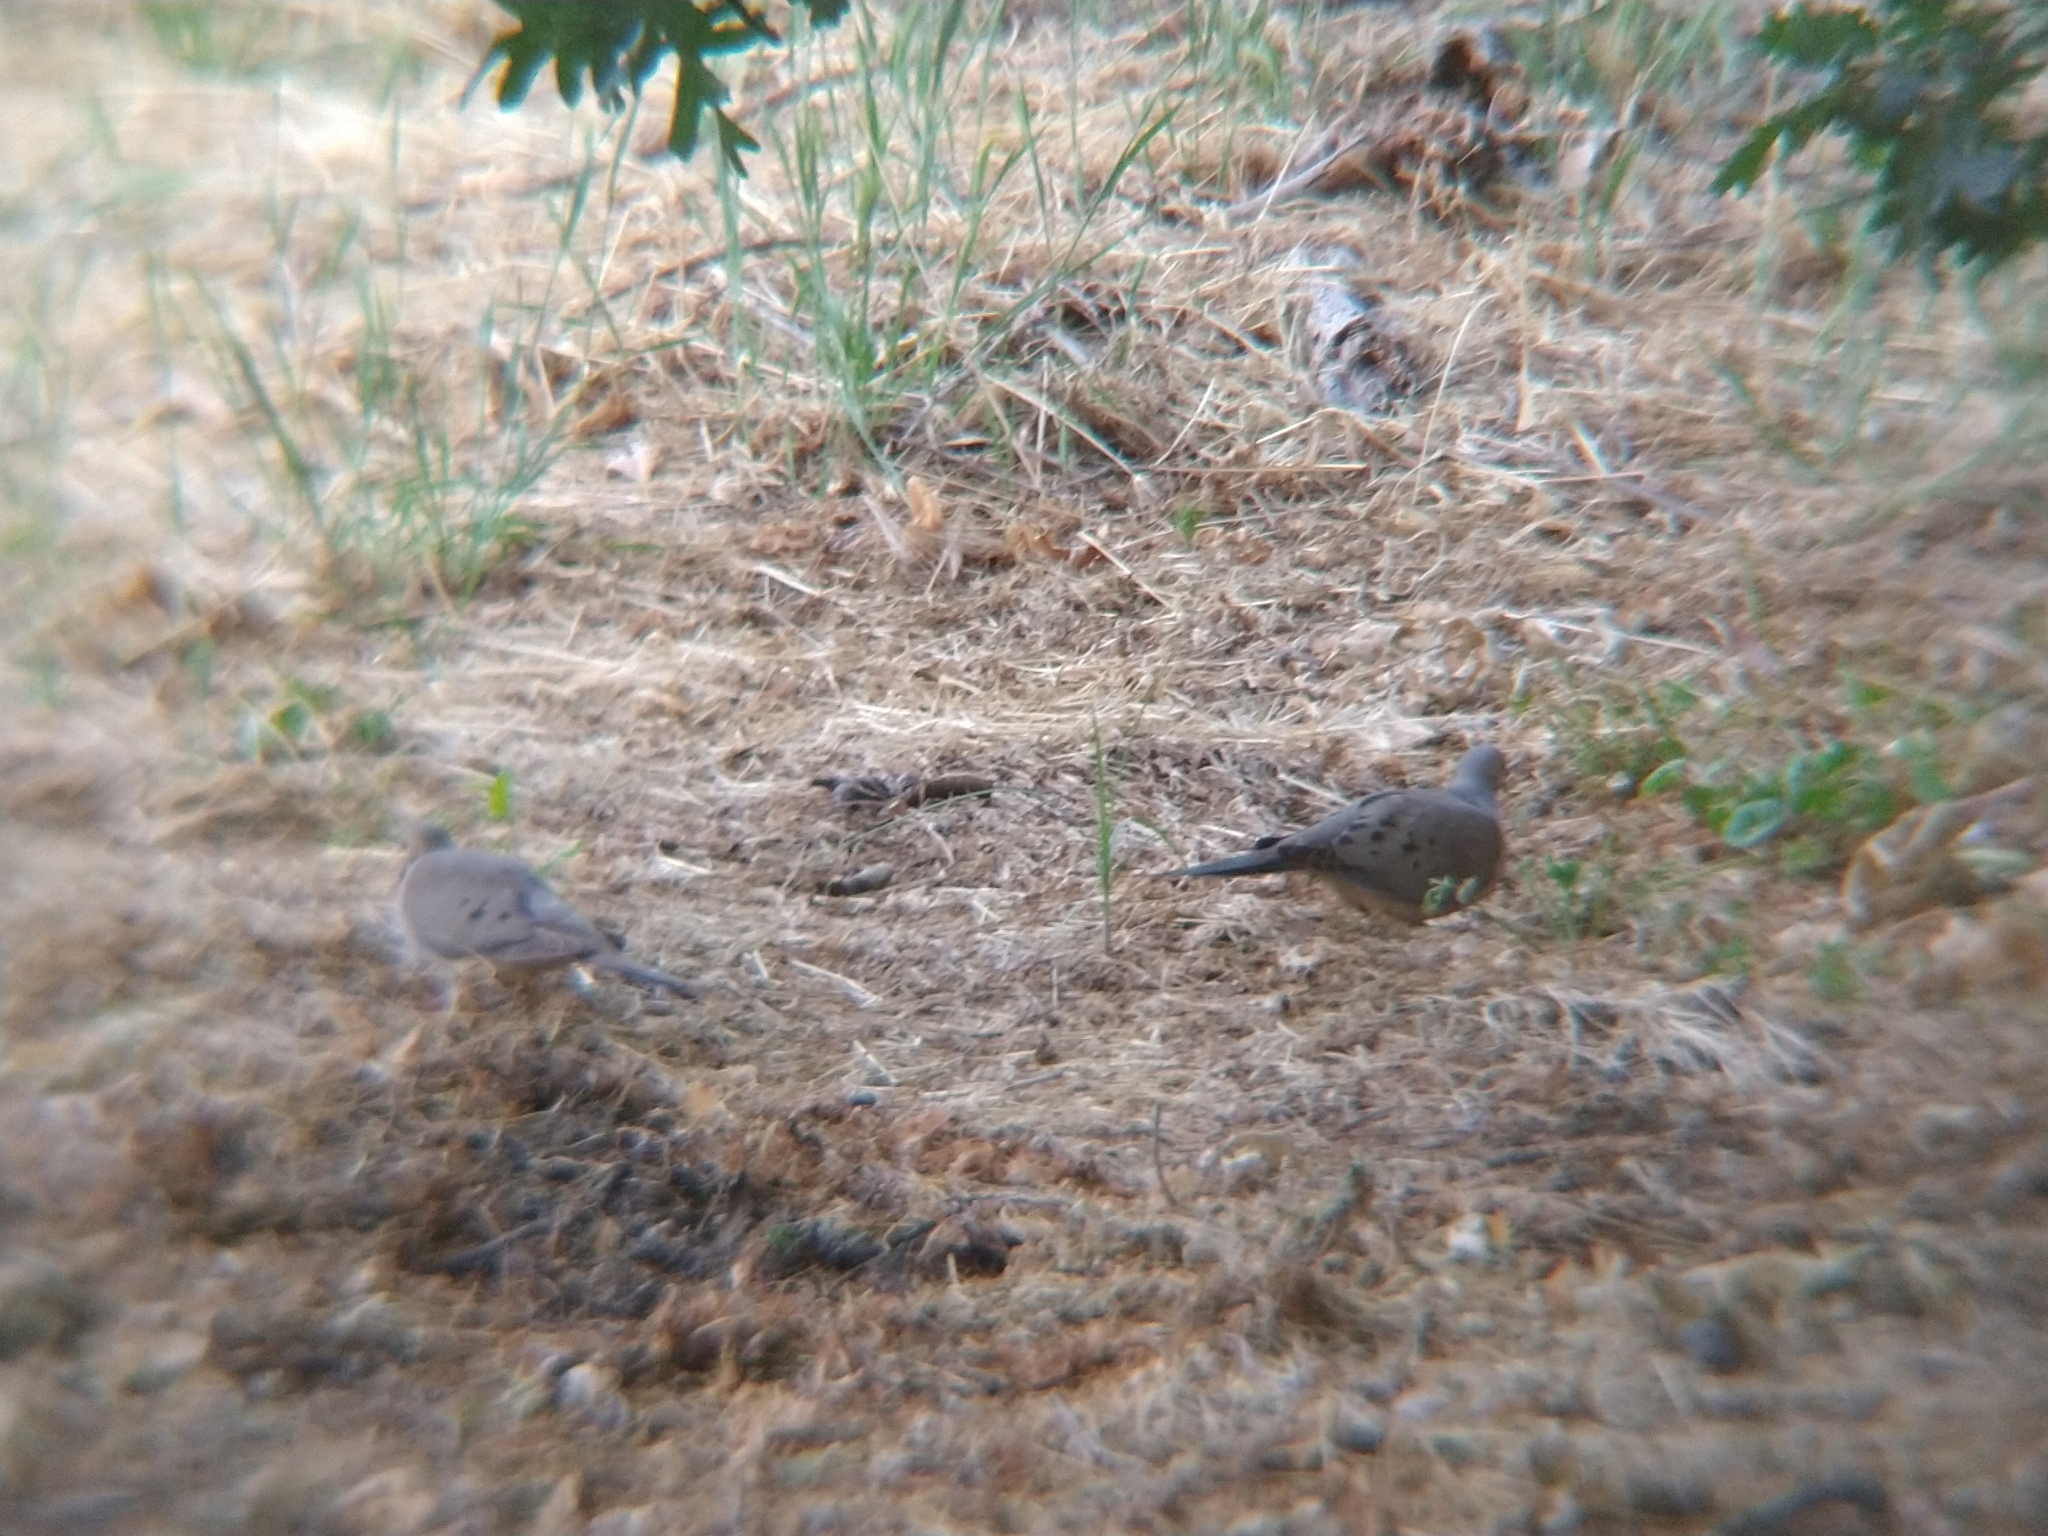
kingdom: Animalia
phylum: Chordata
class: Aves
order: Columbiformes
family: Columbidae
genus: Zenaida
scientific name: Zenaida macroura
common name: Mourning dove
